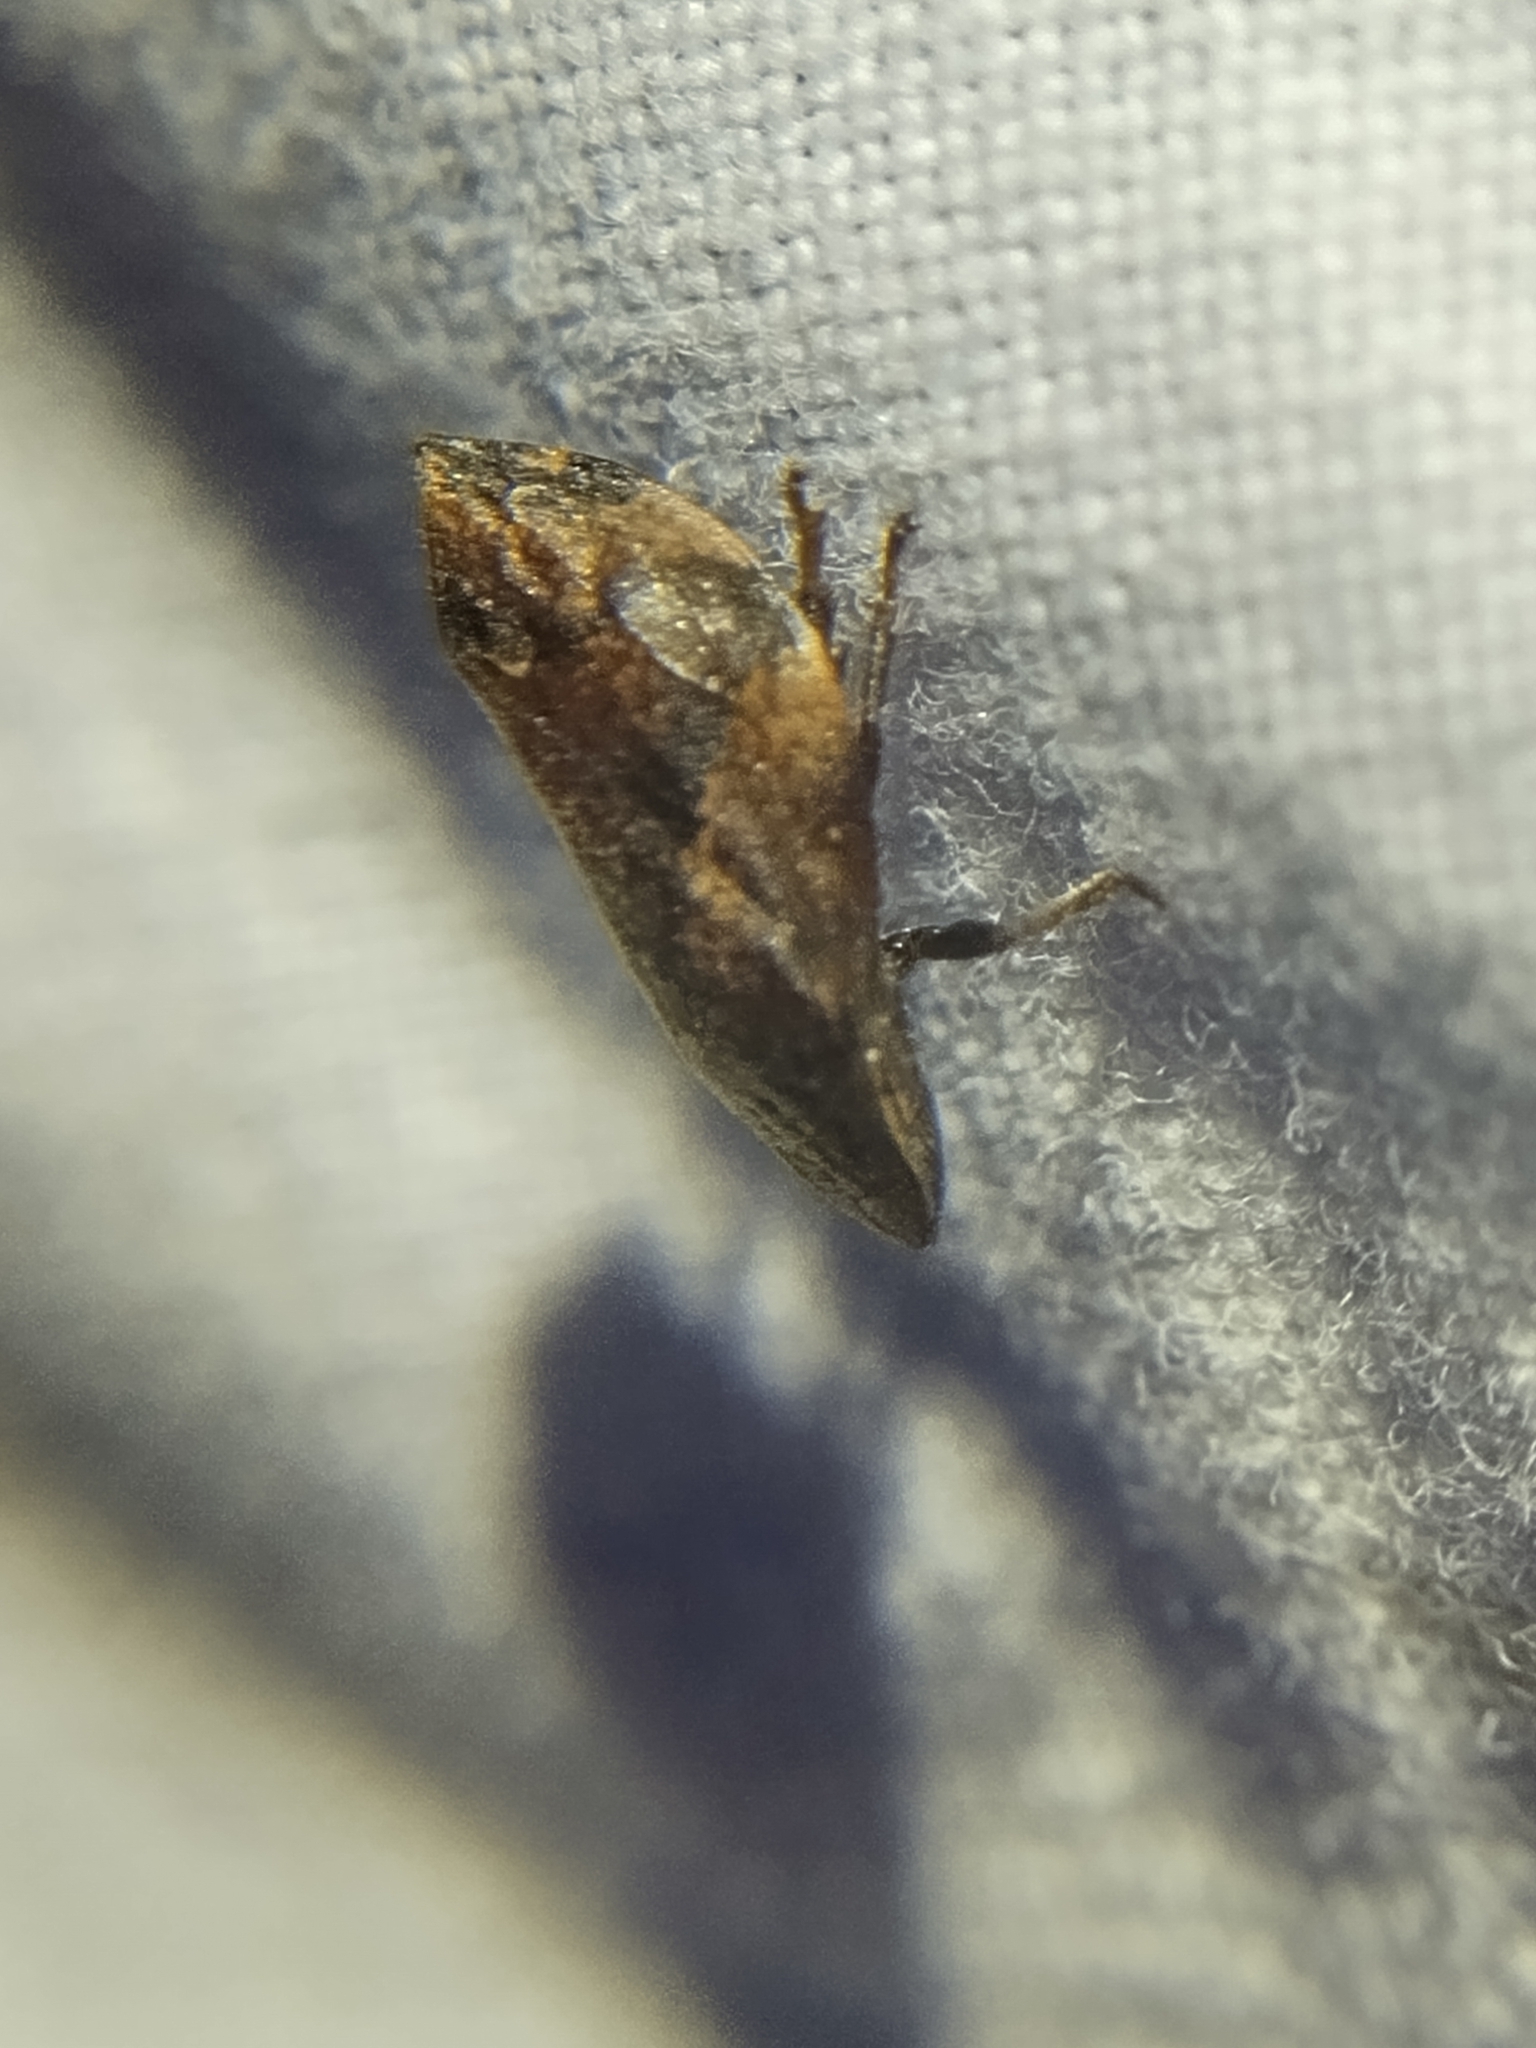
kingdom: Animalia
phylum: Arthropoda
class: Insecta
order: Hemiptera
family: Aphrophoridae
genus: Lepyronia
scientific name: Lepyronia quadrangularis
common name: Diamond-backed spittlebug
